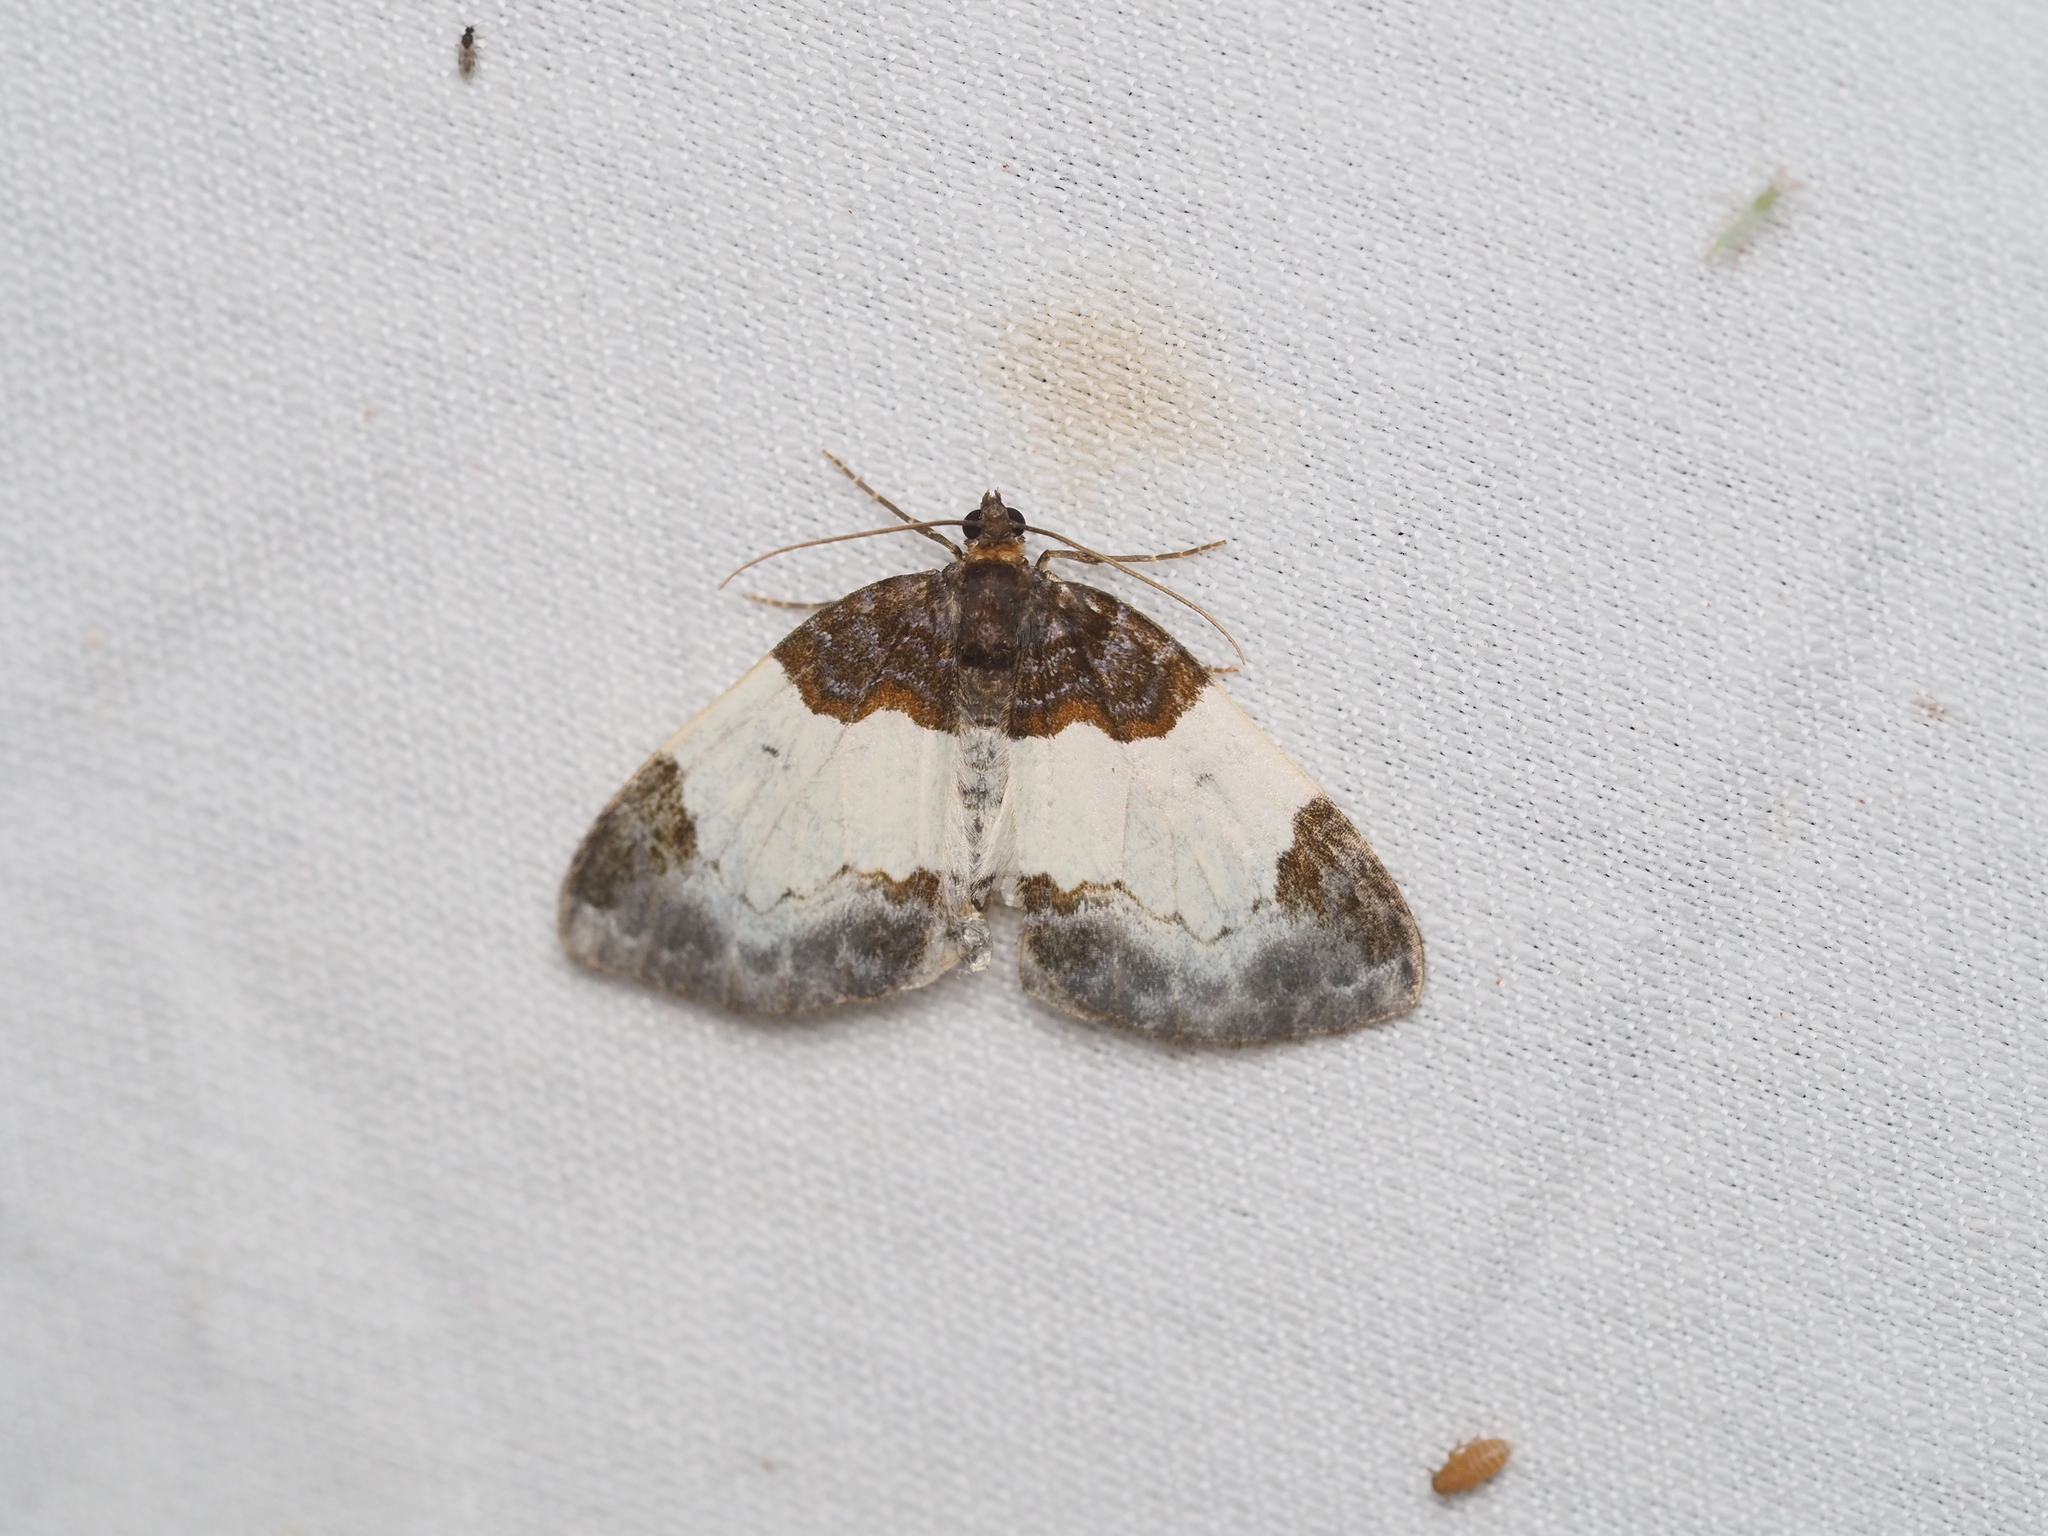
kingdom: Animalia
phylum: Arthropoda
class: Insecta
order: Lepidoptera
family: Geometridae
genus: Mesoleuca
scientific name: Mesoleuca albicillata
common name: Beautiful carpet
